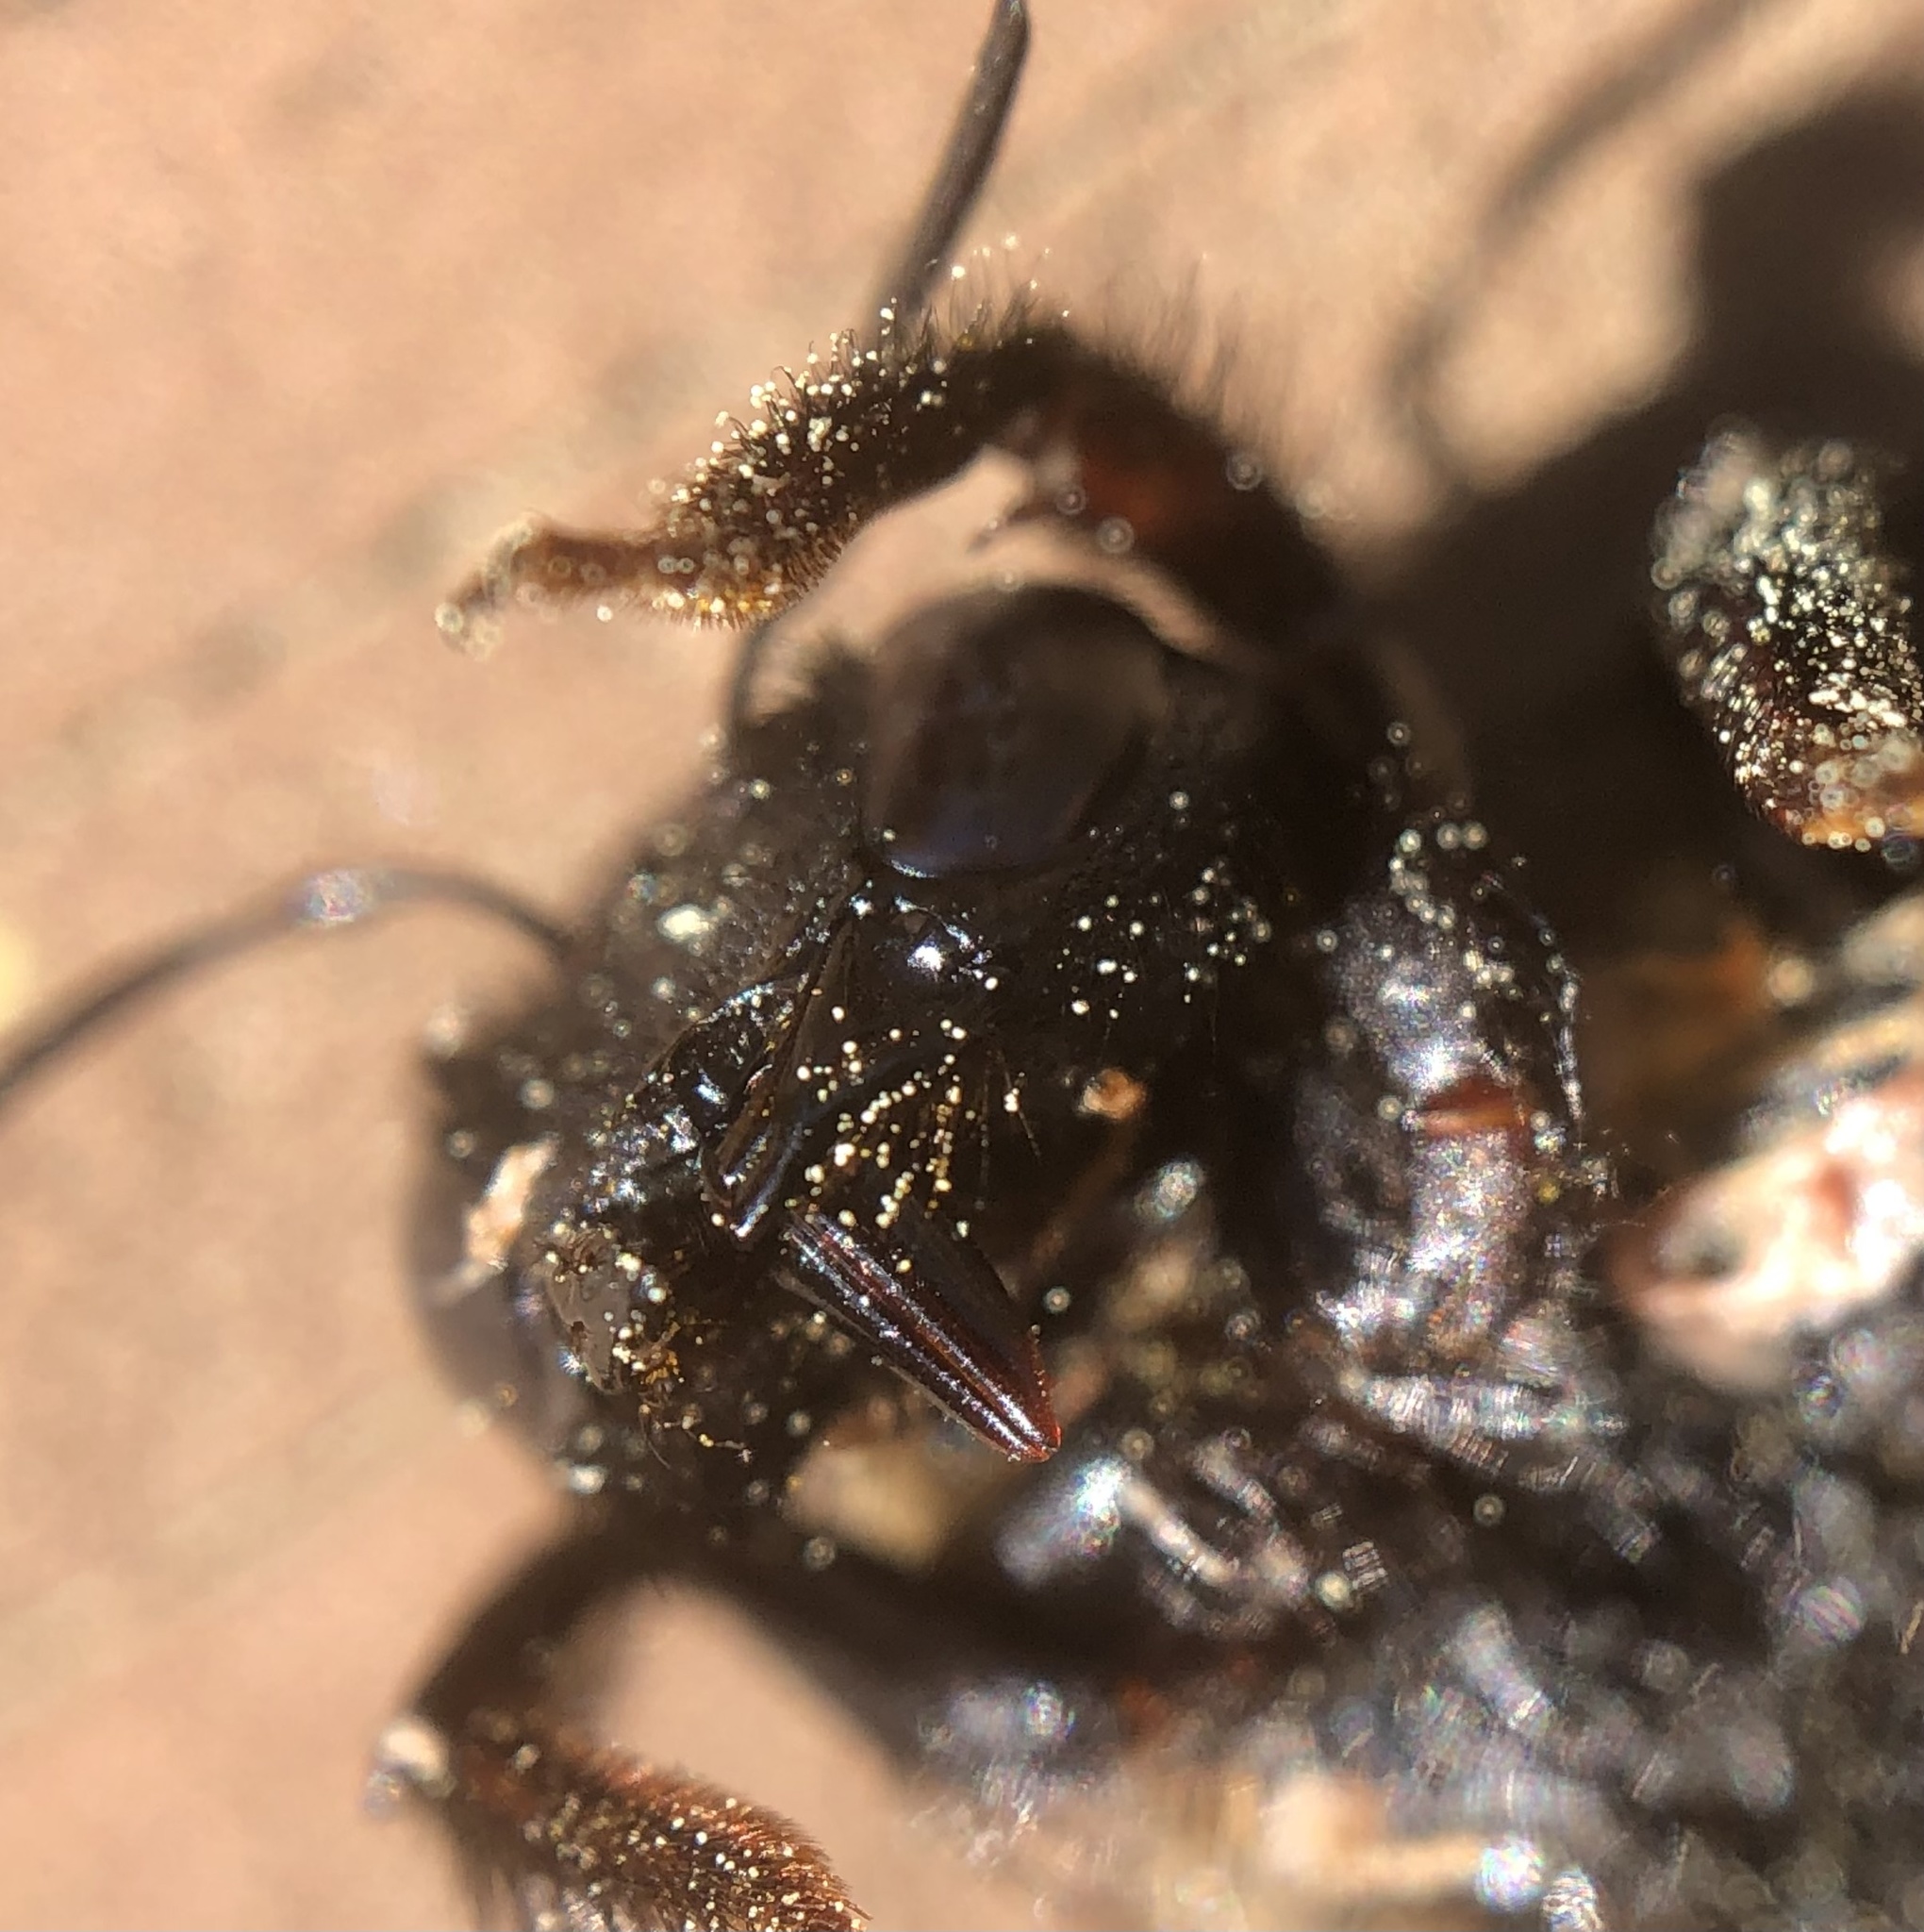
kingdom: Animalia
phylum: Arthropoda
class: Insecta
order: Hymenoptera
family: Apidae
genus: Xylocopa
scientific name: Xylocopa virginica
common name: Carpenter bee
